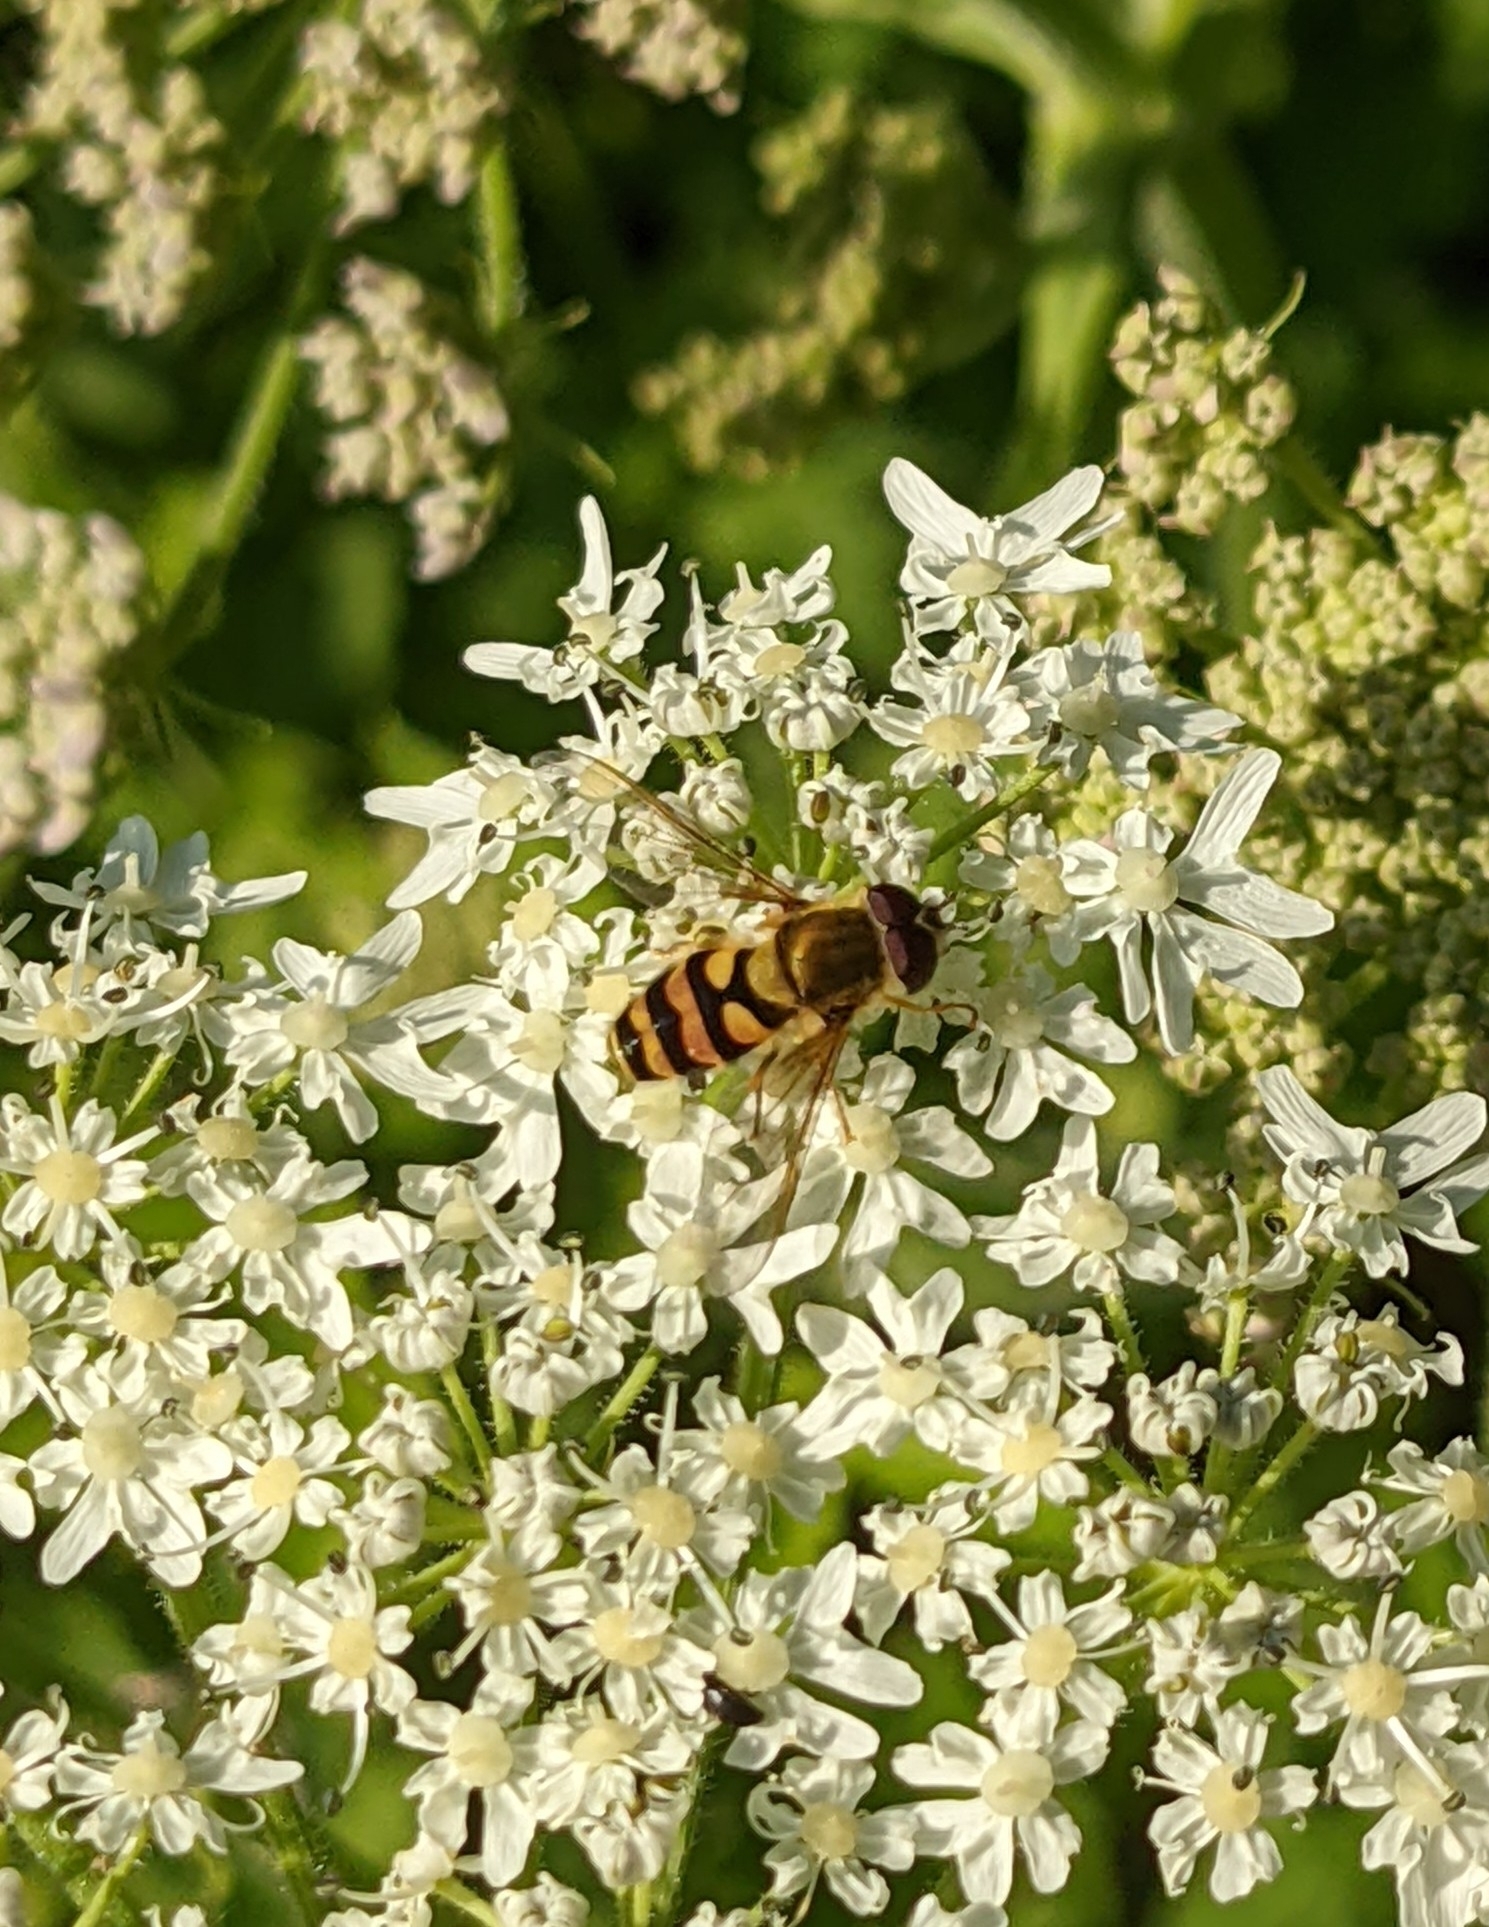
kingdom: Animalia
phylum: Arthropoda
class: Insecta
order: Diptera
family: Syrphidae
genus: Syrphus
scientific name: Syrphus
